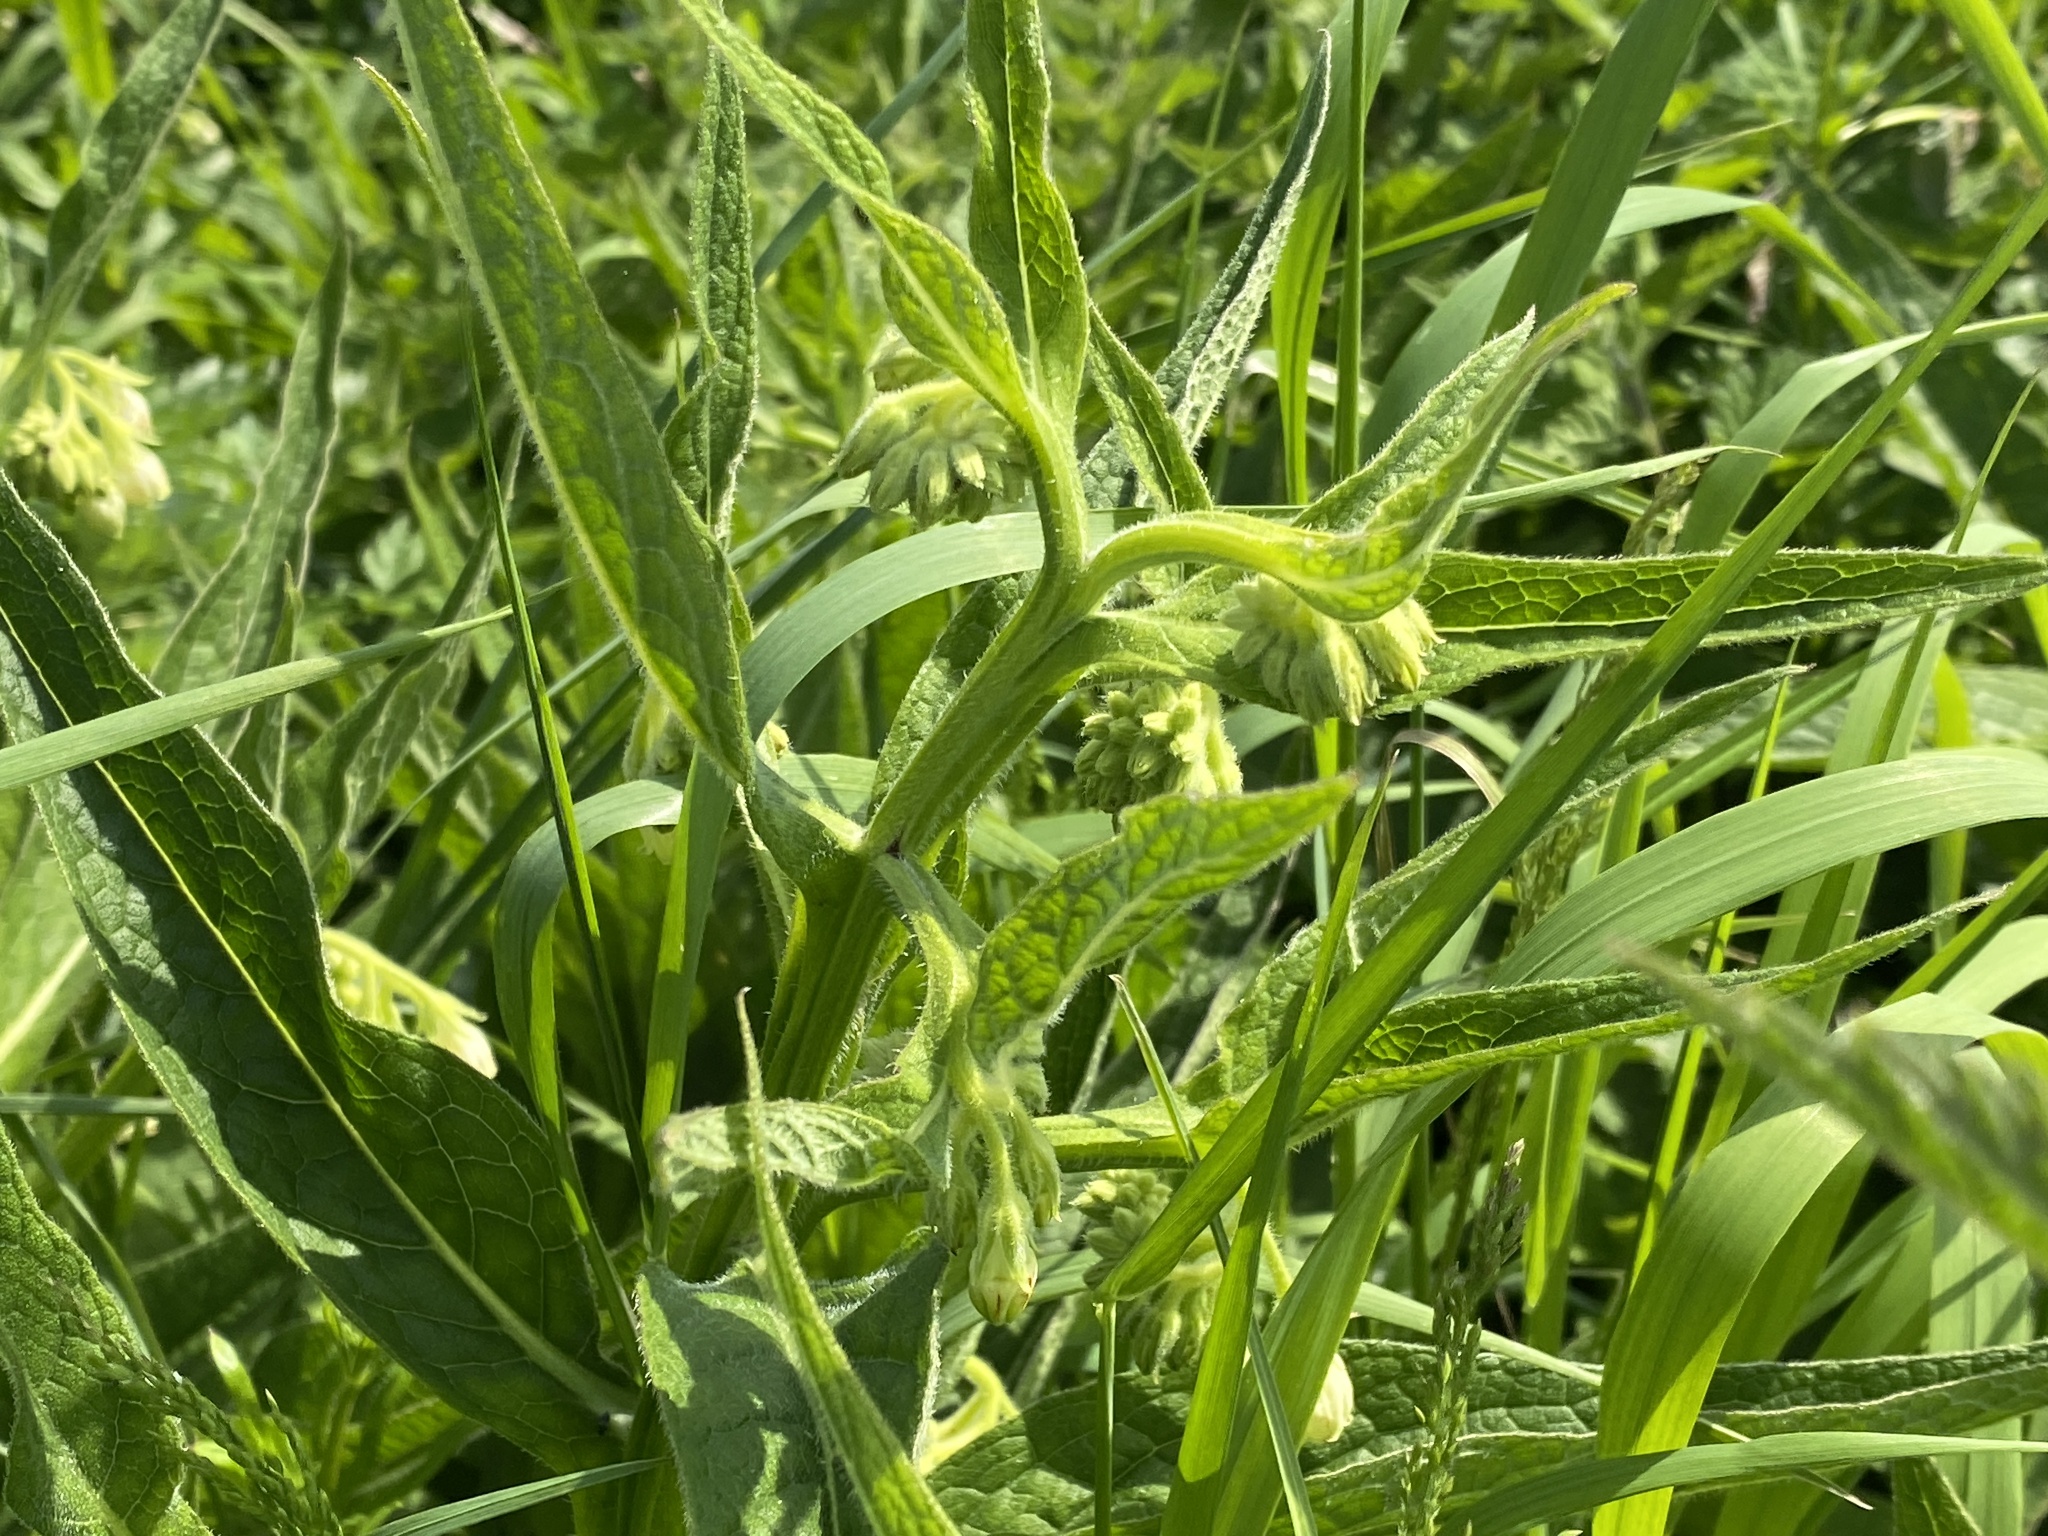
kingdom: Plantae
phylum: Tracheophyta
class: Magnoliopsida
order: Boraginales
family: Boraginaceae
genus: Symphytum
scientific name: Symphytum officinale
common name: Common comfrey
